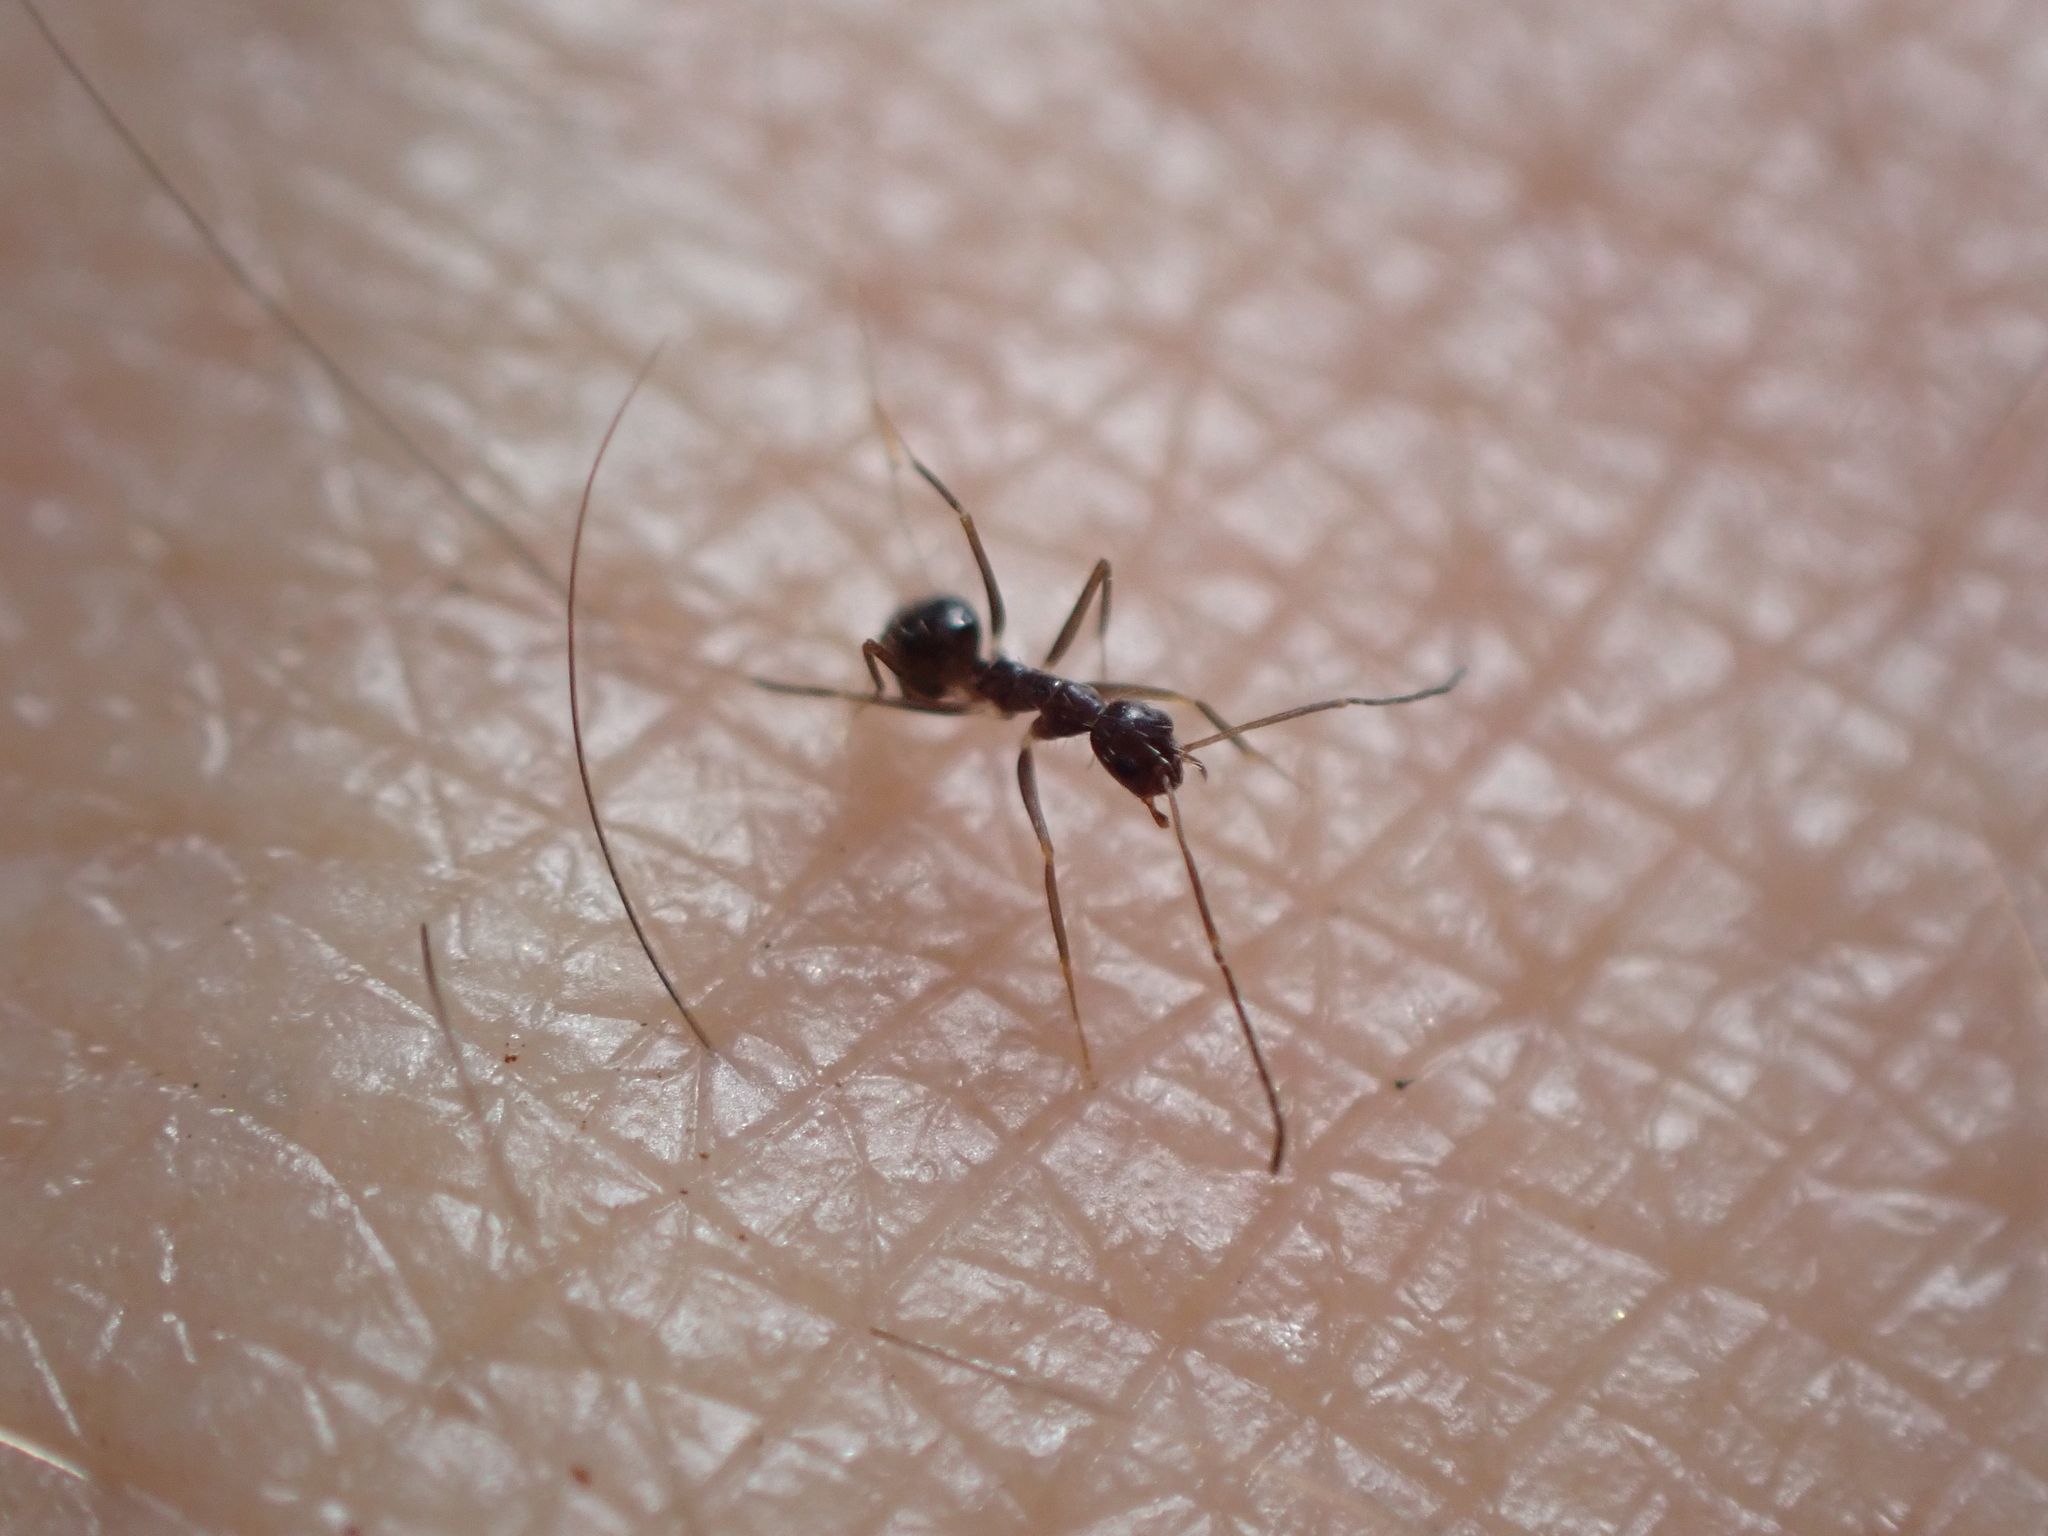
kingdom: Animalia
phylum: Arthropoda
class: Insecta
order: Hymenoptera
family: Formicidae
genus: Paratrechina
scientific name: Paratrechina longicornis
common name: Longhorned crazy ant
